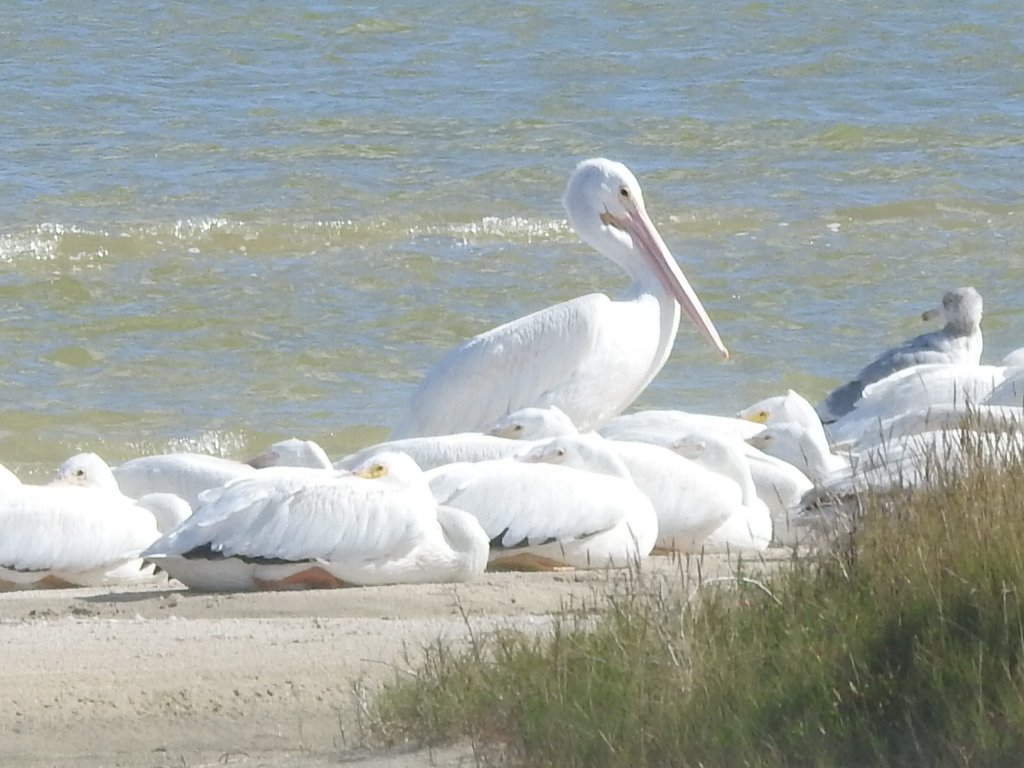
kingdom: Animalia
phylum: Chordata
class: Aves
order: Pelecaniformes
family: Pelecanidae
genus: Pelecanus
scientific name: Pelecanus erythrorhynchos
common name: American white pelican
